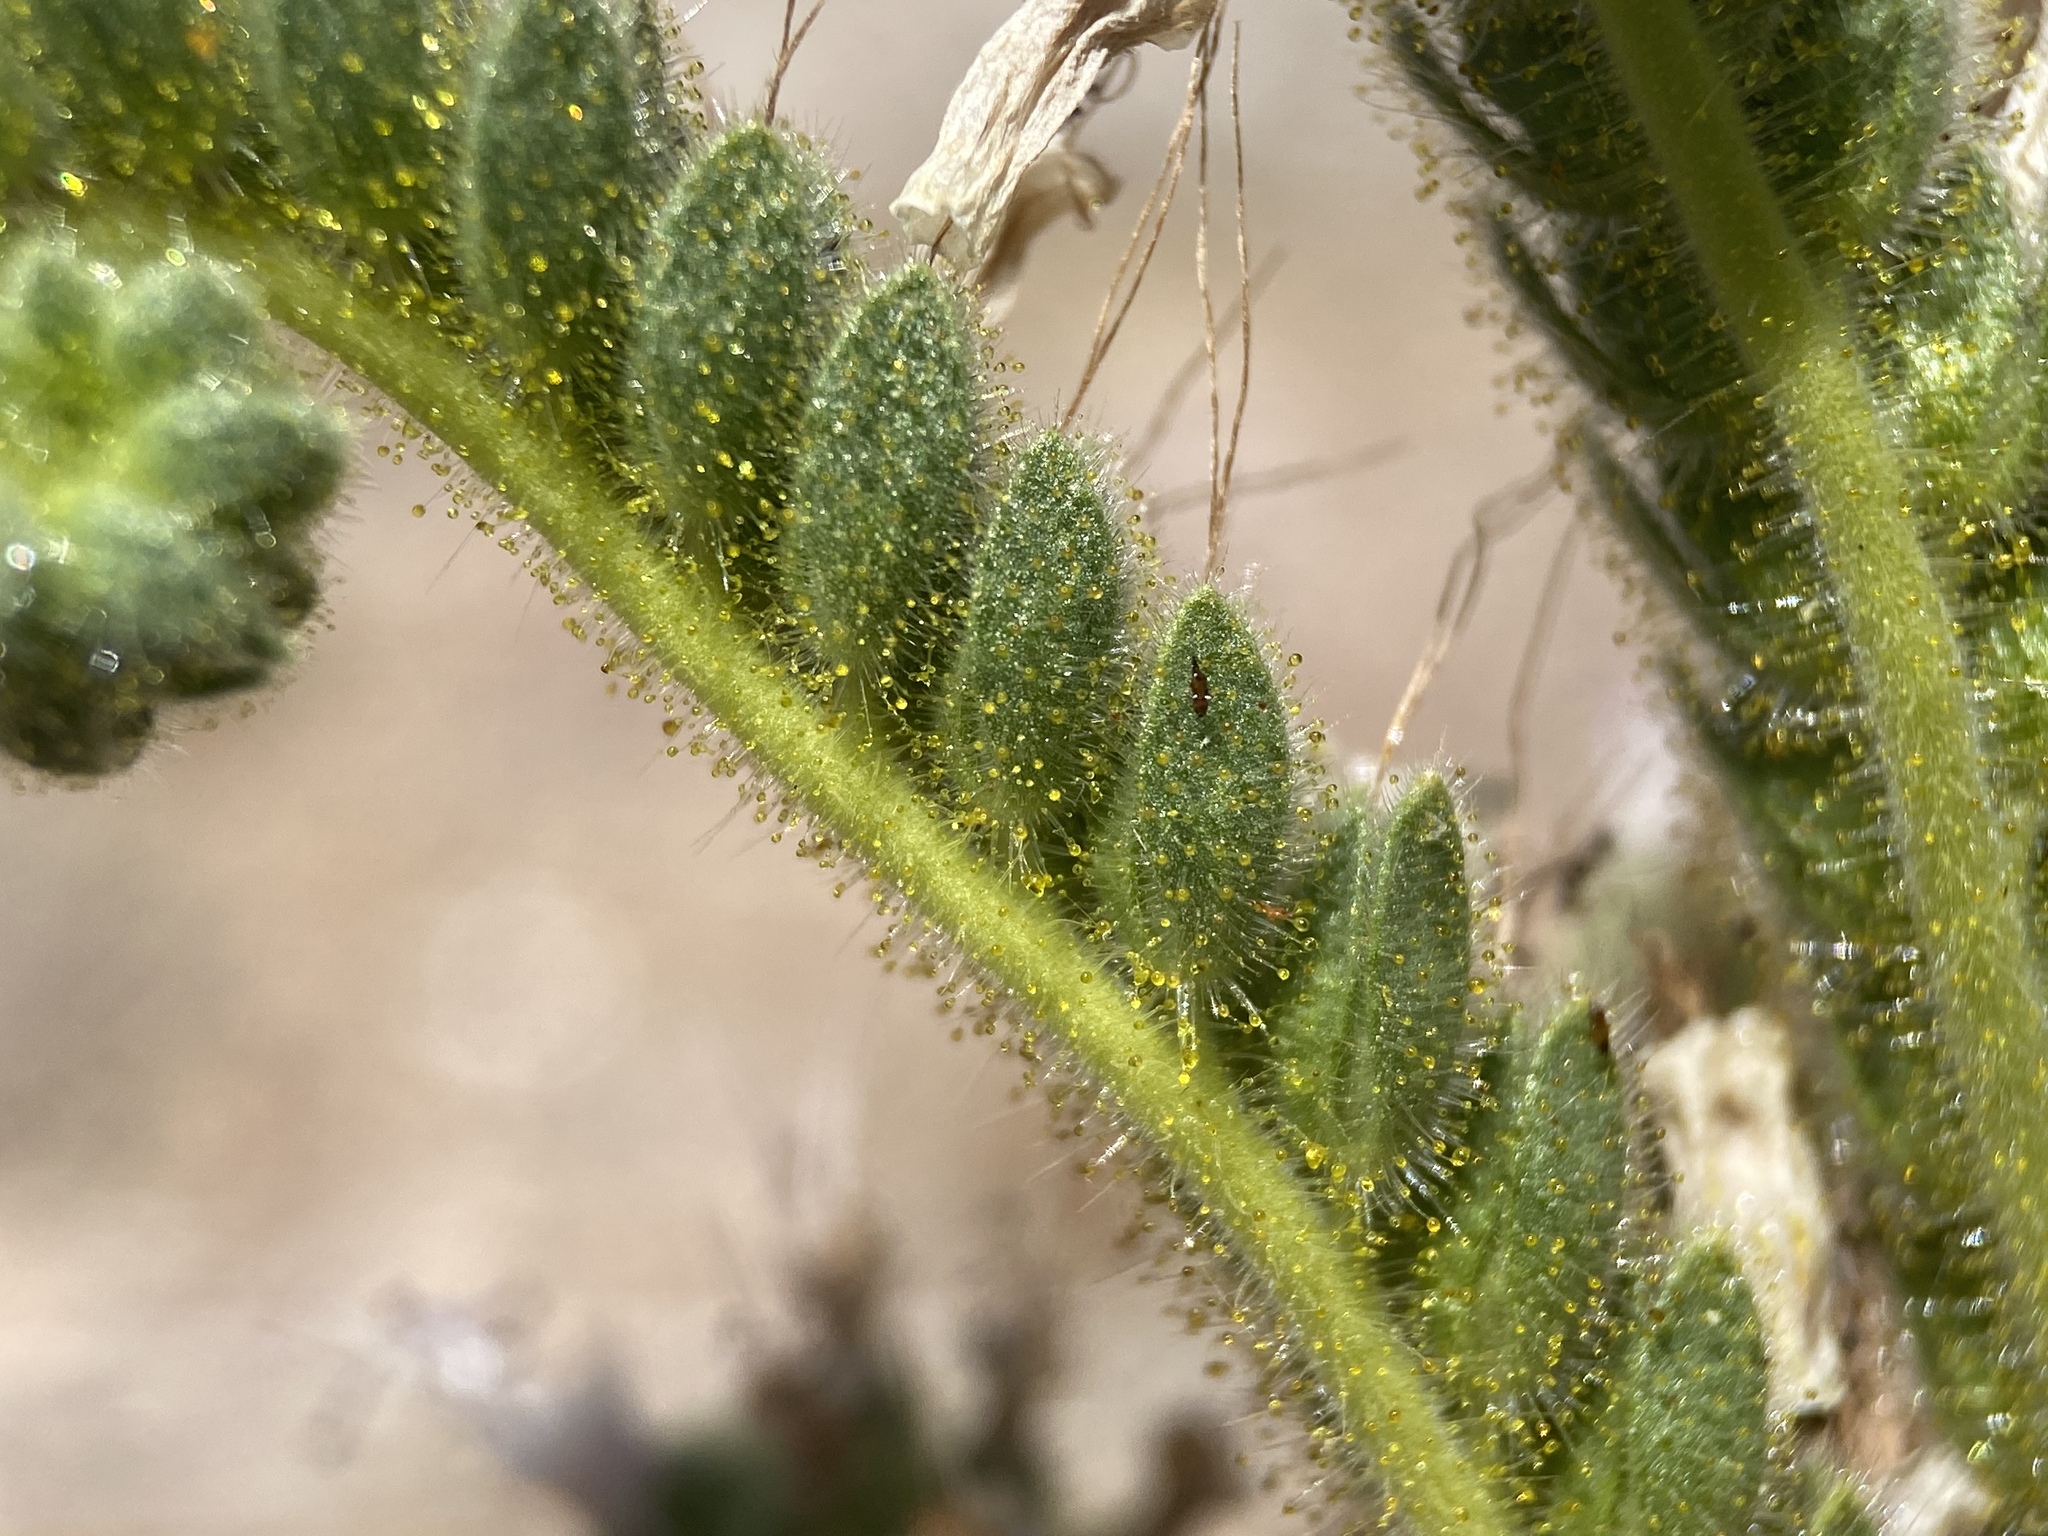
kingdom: Plantae
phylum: Tracheophyta
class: Magnoliopsida
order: Boraginales
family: Hydrophyllaceae
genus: Phacelia
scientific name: Phacelia palmeri
